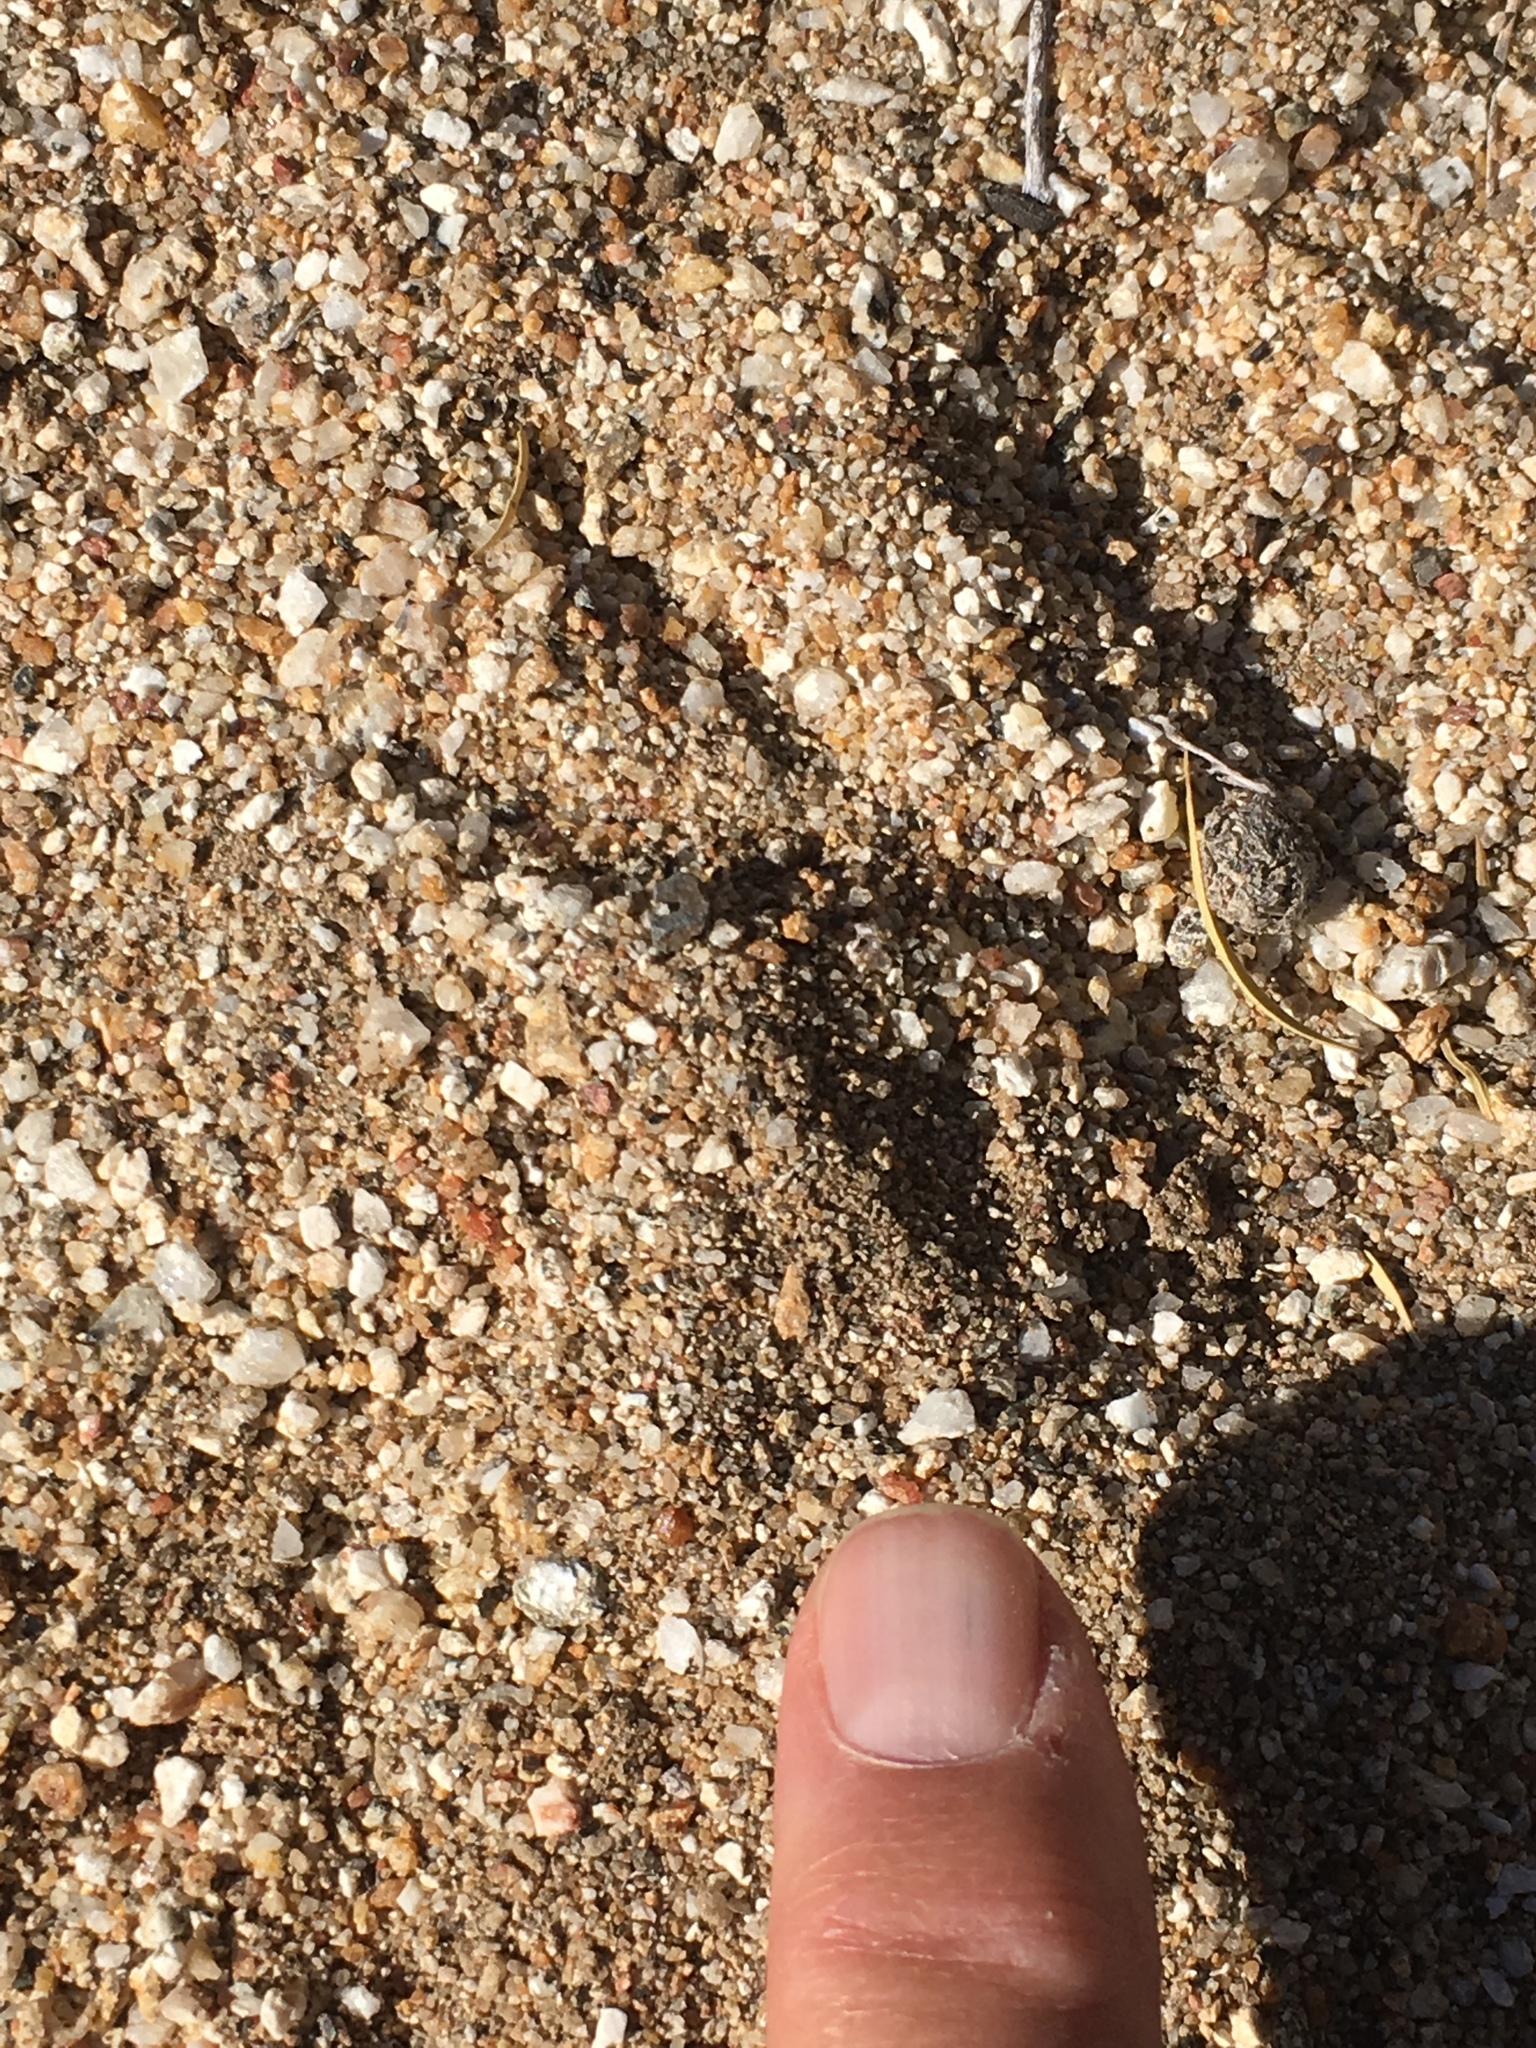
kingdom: Animalia
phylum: Chordata
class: Aves
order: Cuculiformes
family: Cuculidae
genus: Geococcyx
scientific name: Geococcyx californianus
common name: Greater roadrunner
